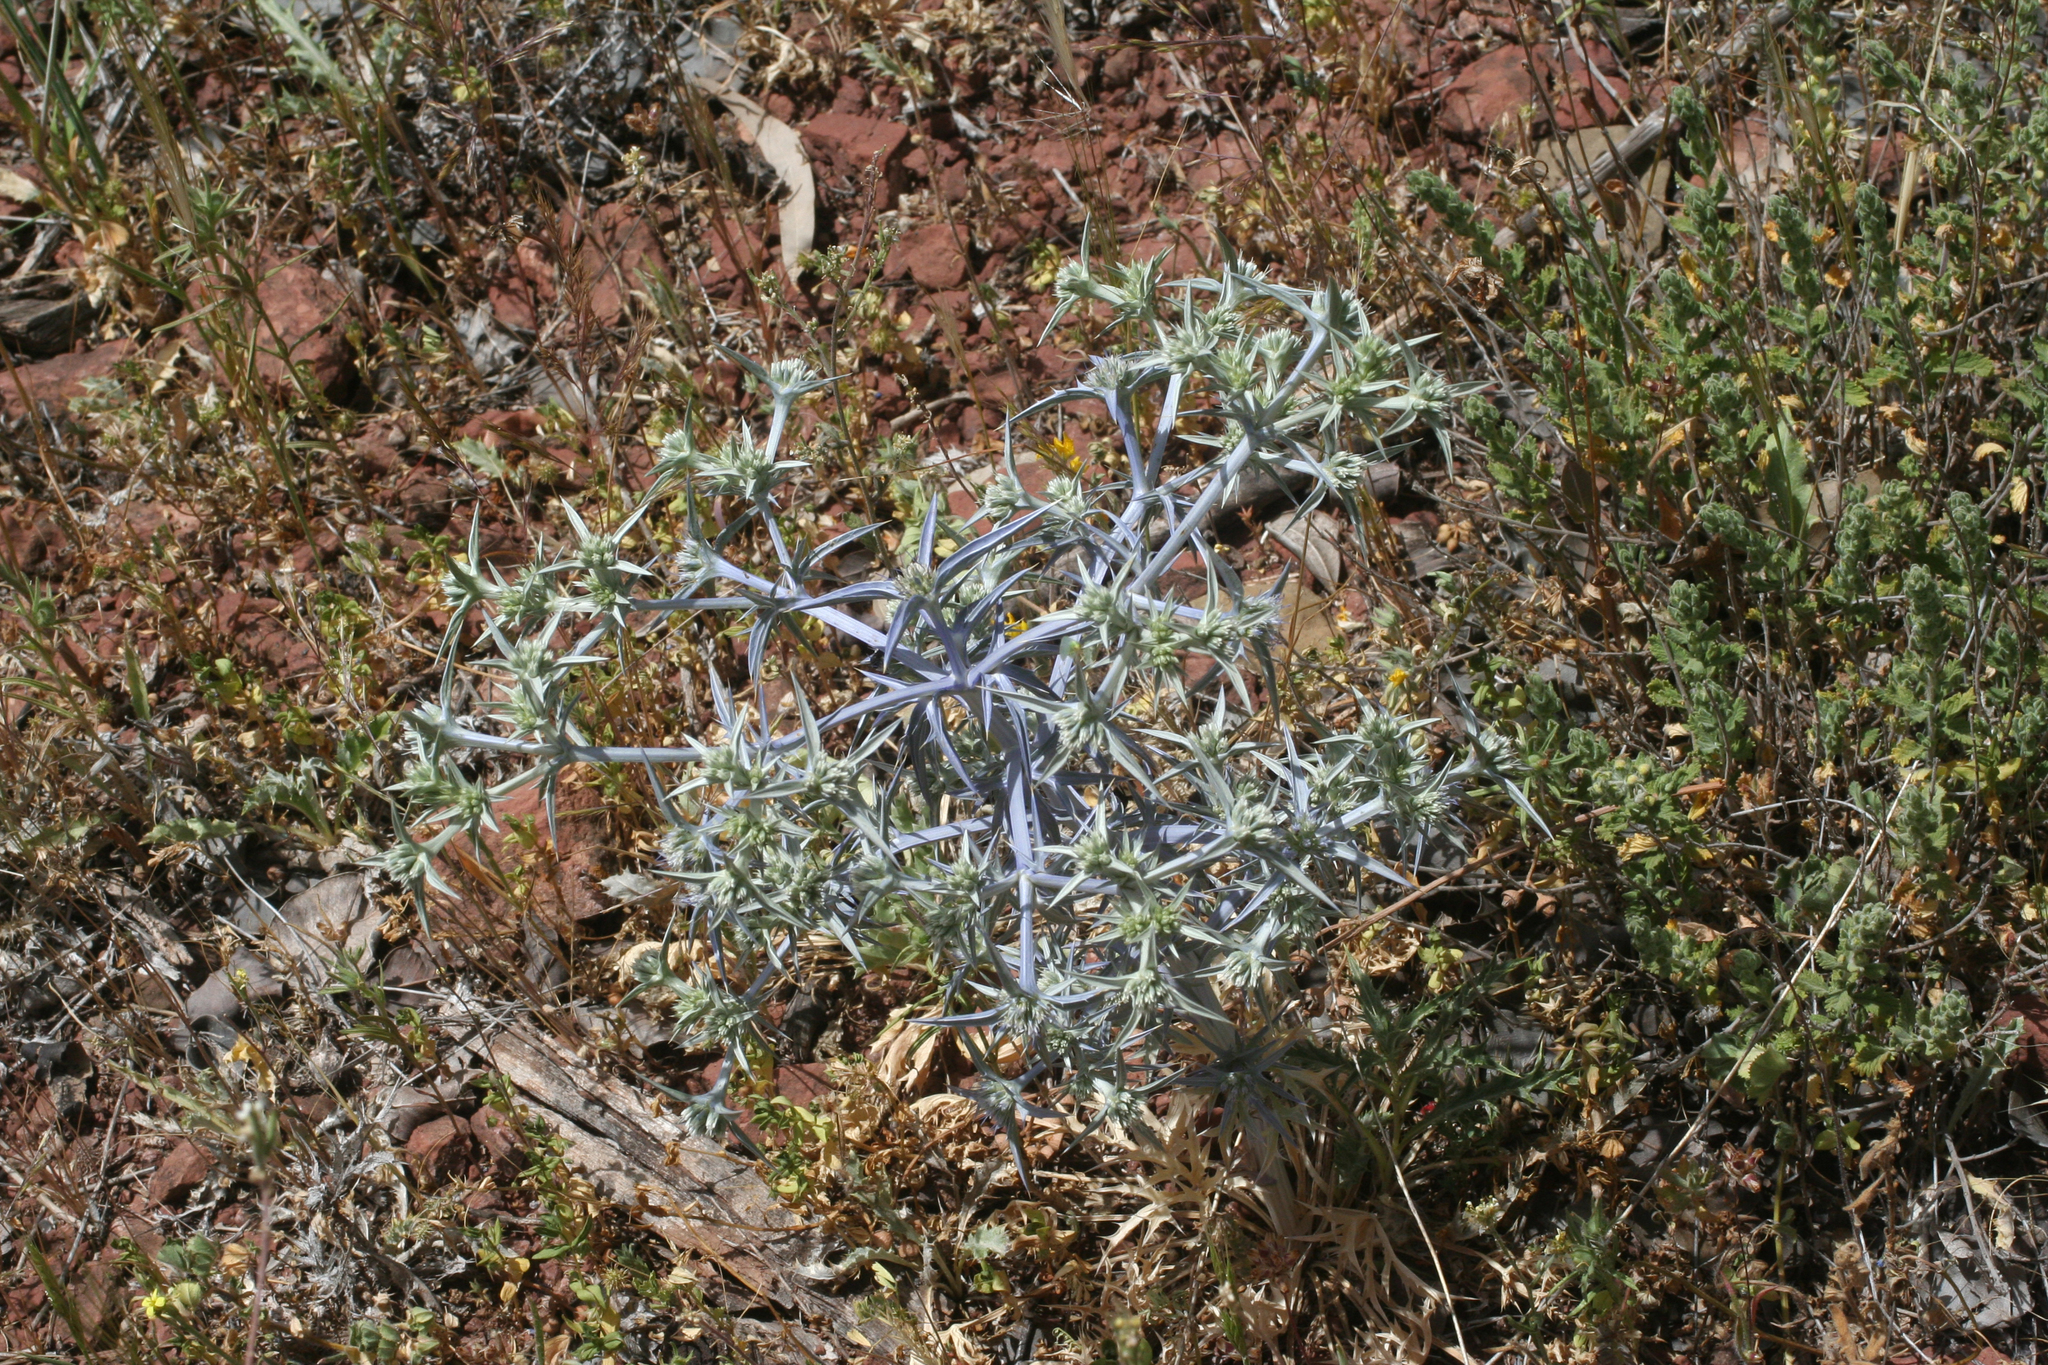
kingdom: Plantae
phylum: Tracheophyta
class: Magnoliopsida
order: Apiales
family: Apiaceae
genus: Eryngium
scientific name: Eryngium triquetrum
